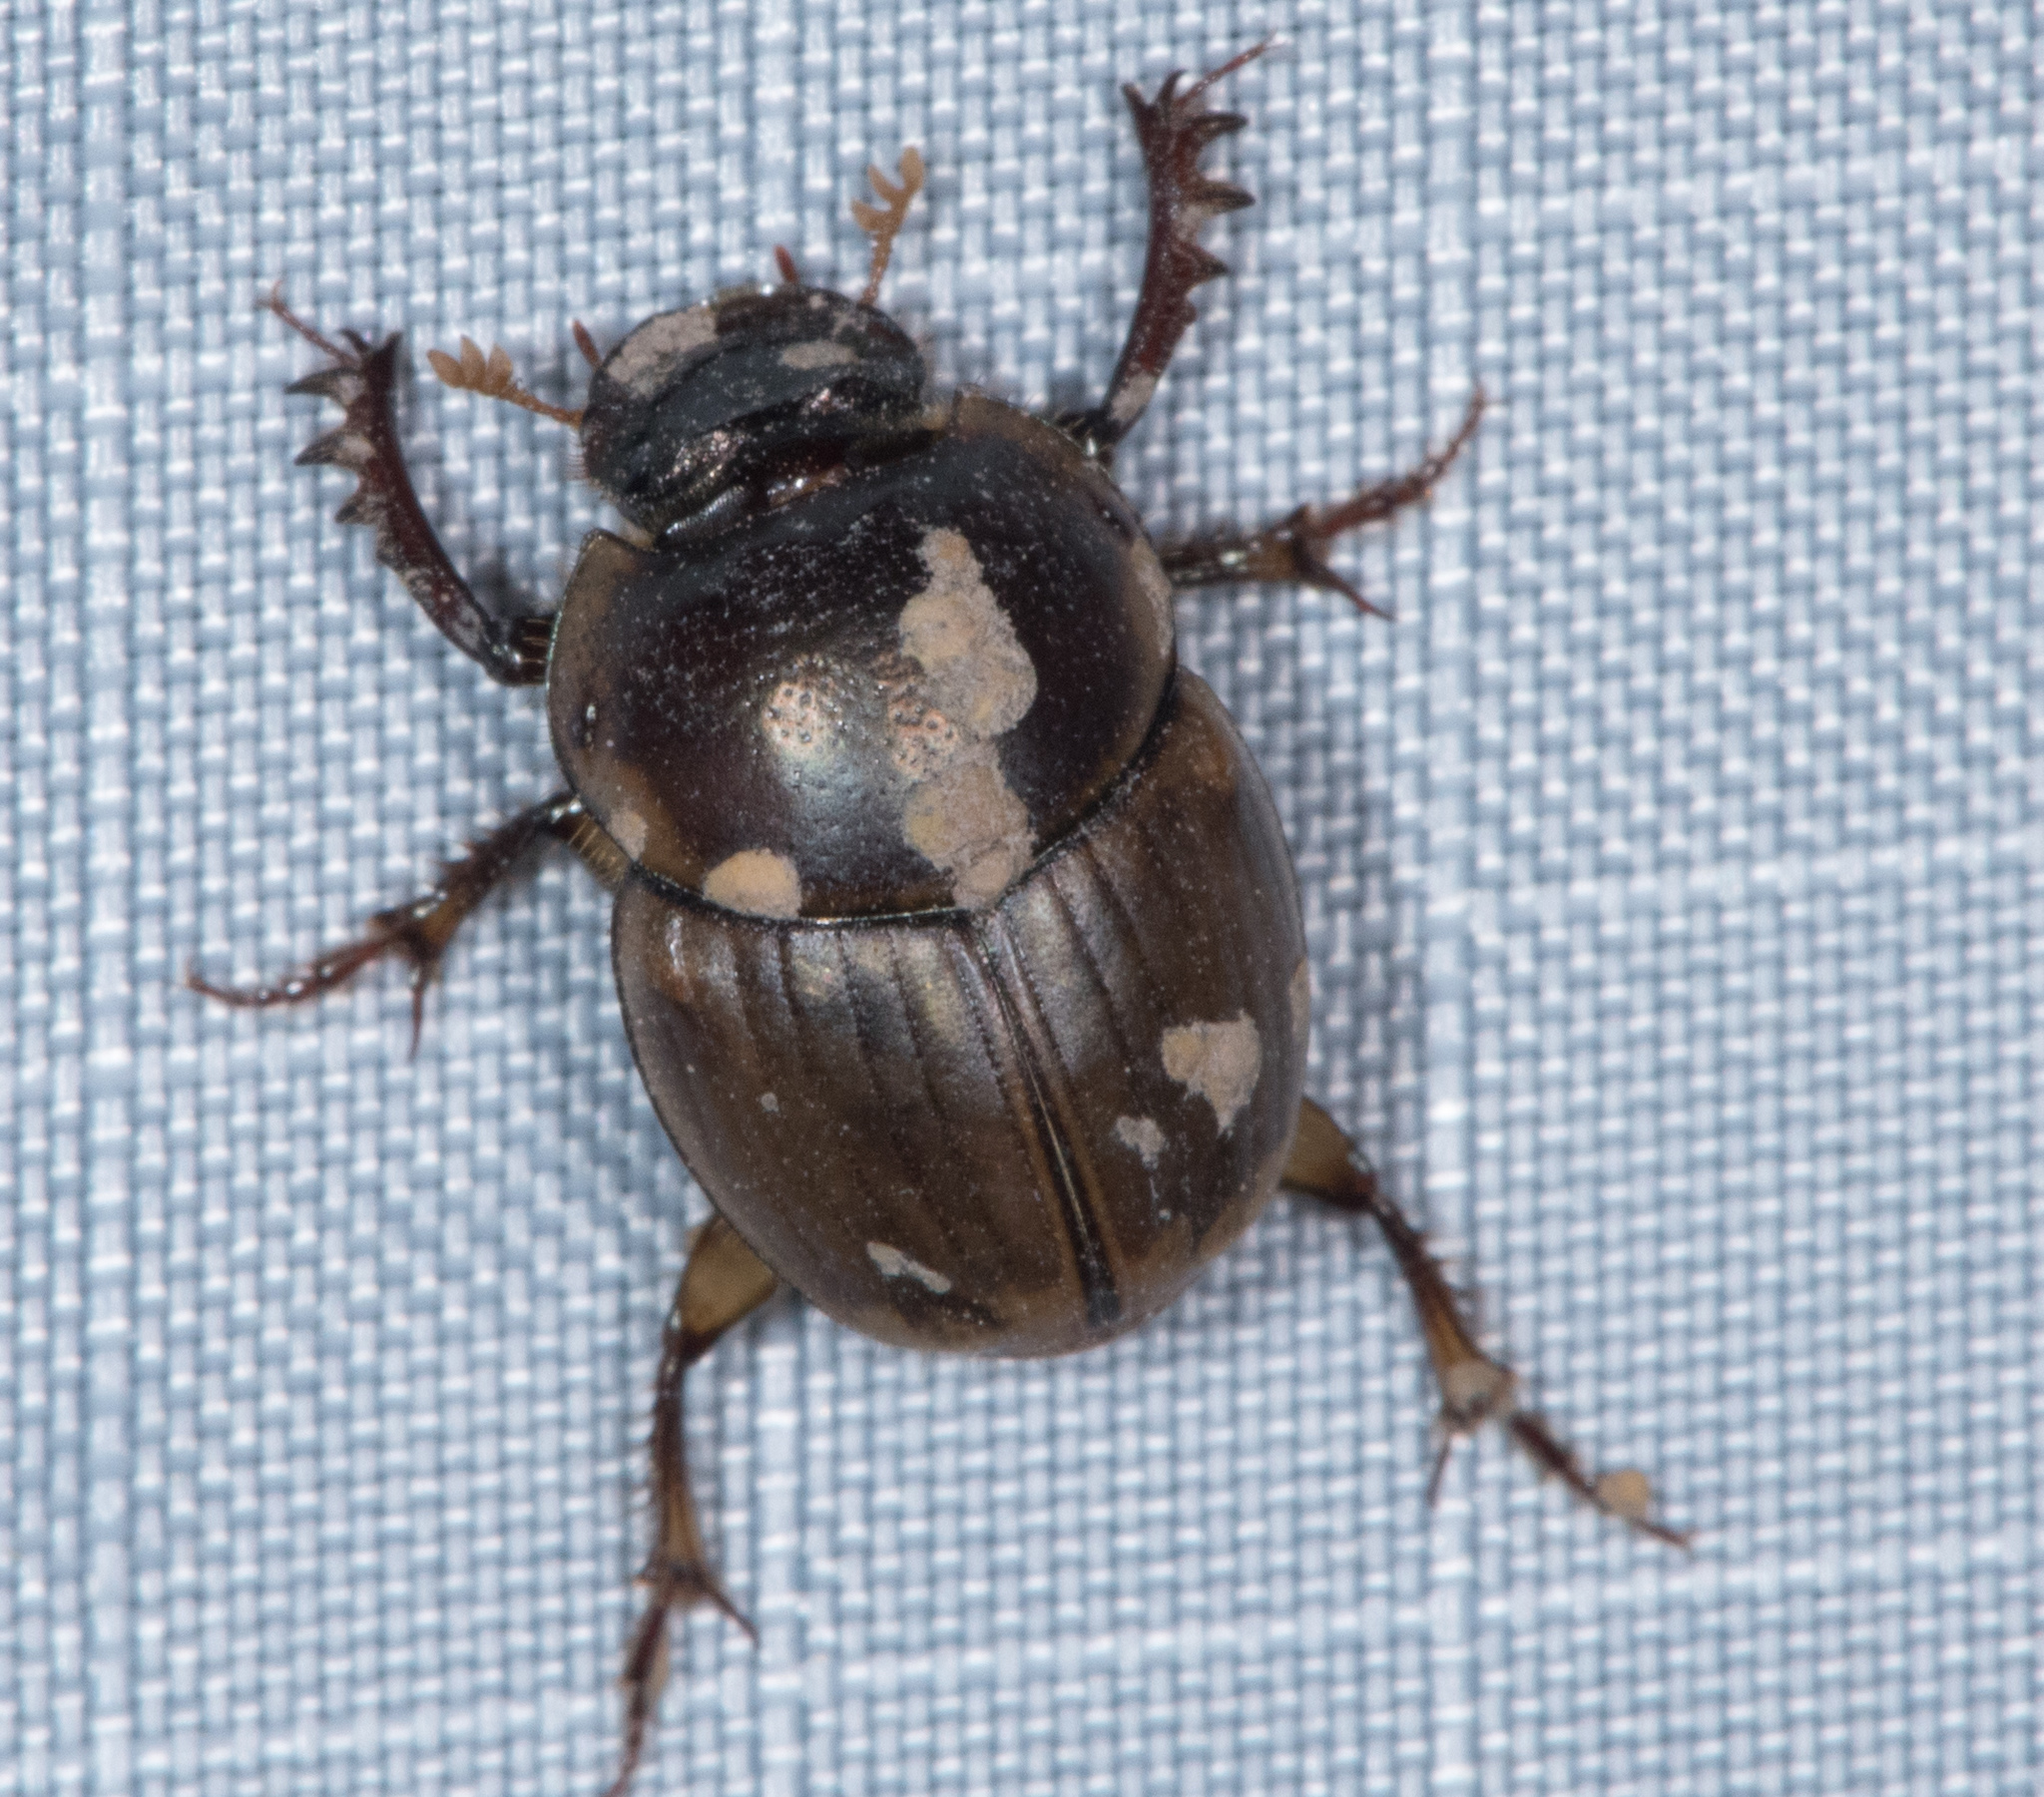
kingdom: Animalia
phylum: Arthropoda
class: Insecta
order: Coleoptera
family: Scarabaeidae
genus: Digitonthophagus
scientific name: Digitonthophagus gazella
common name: Brown dung beetle
